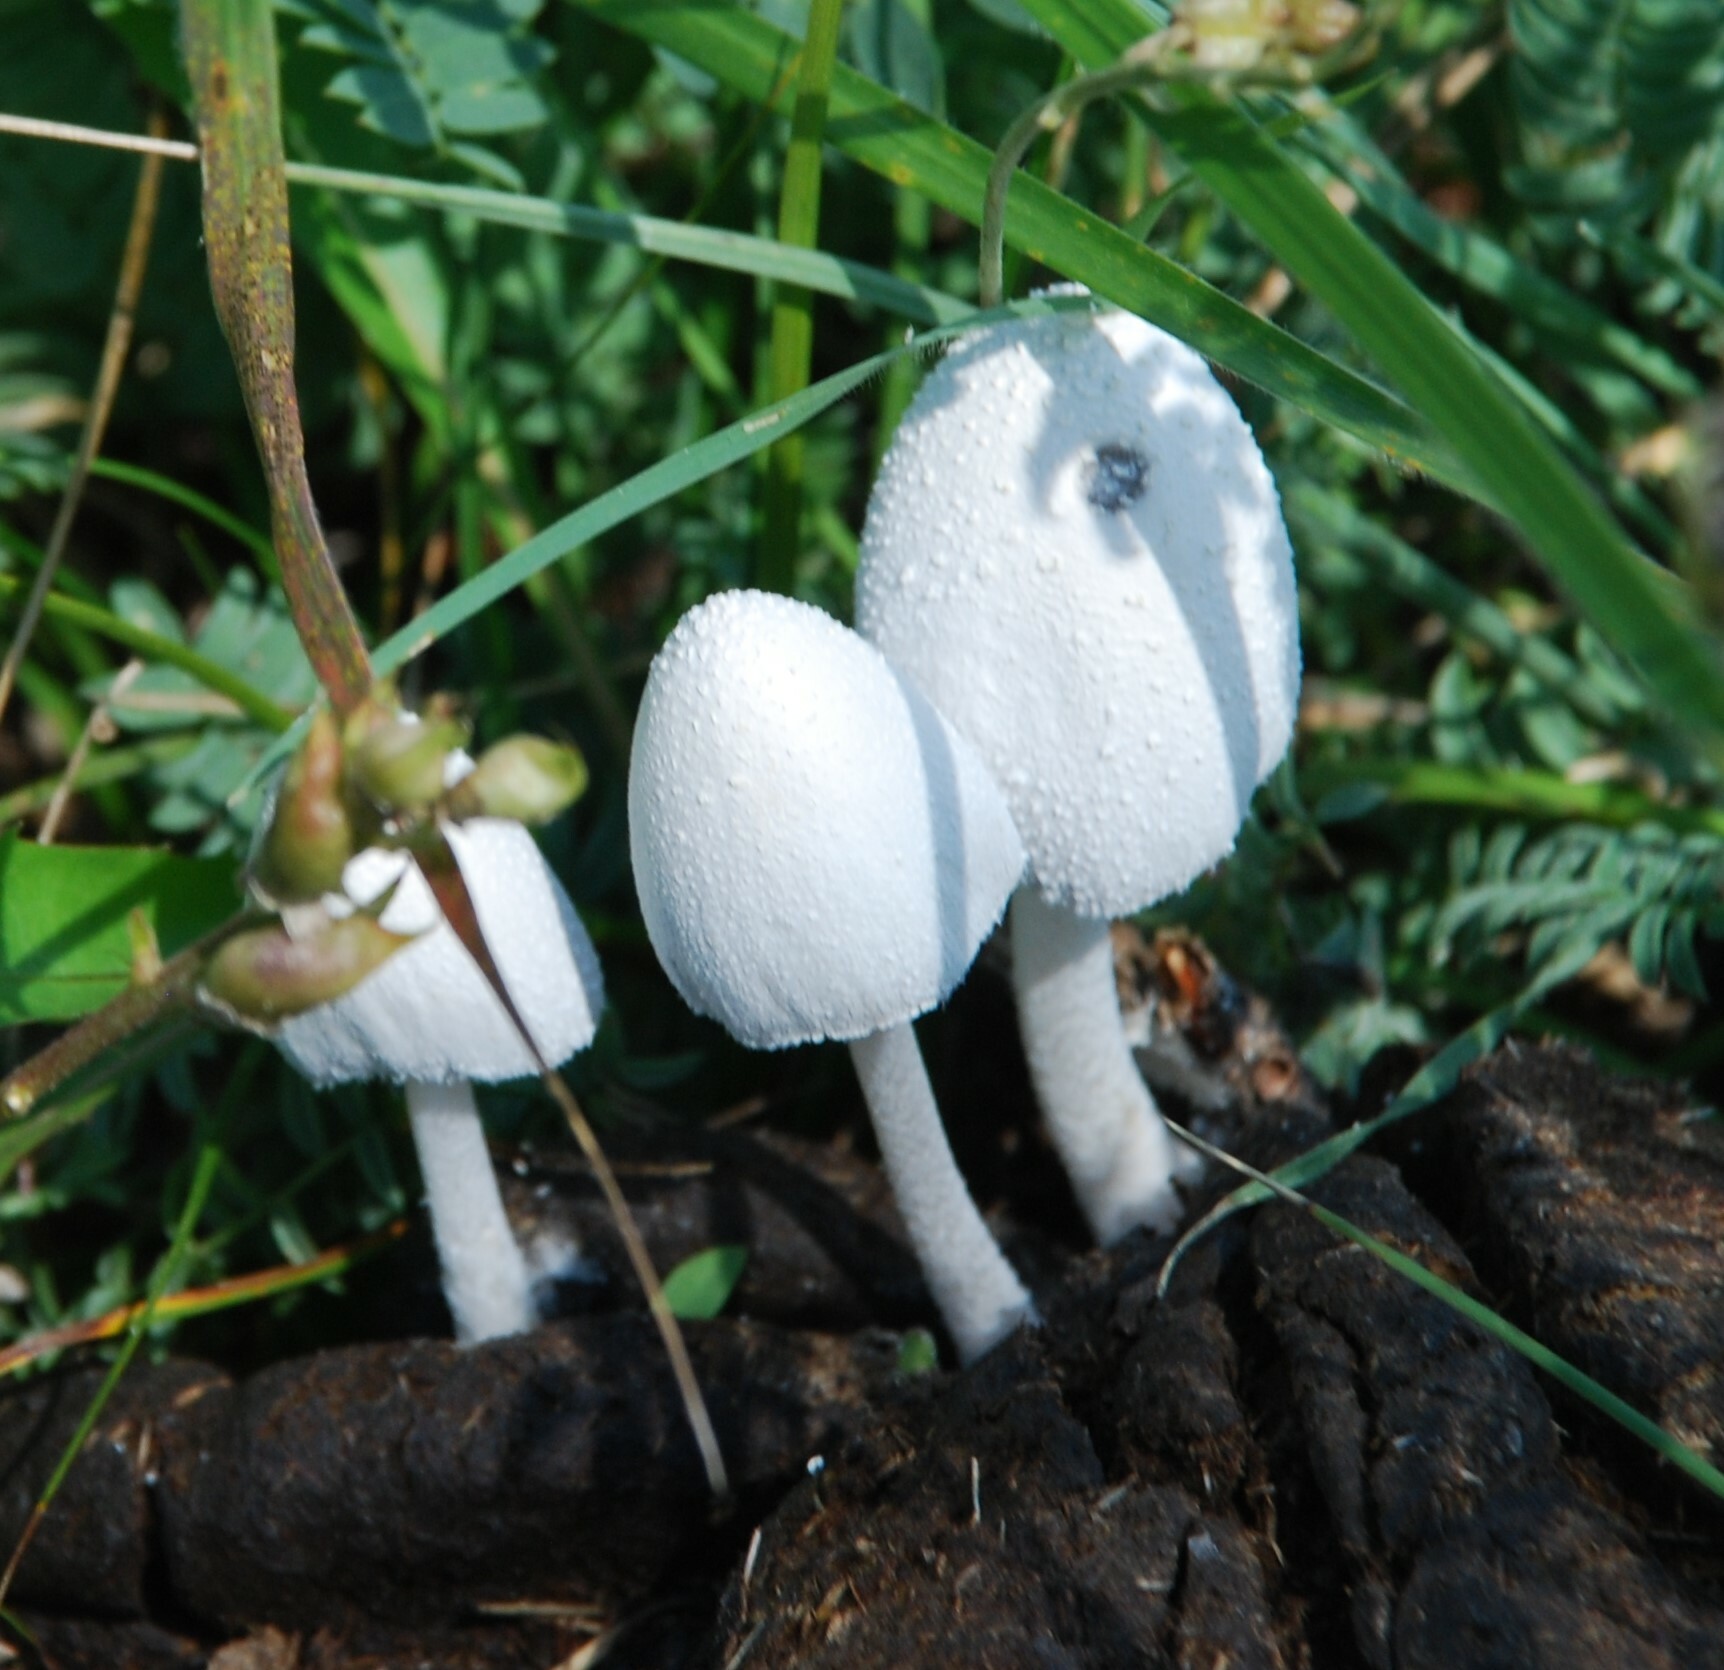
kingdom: Fungi
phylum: Basidiomycota
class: Agaricomycetes
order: Agaricales
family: Psathyrellaceae
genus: Coprinopsis
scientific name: Coprinopsis nivea
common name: Snowy inkcap
